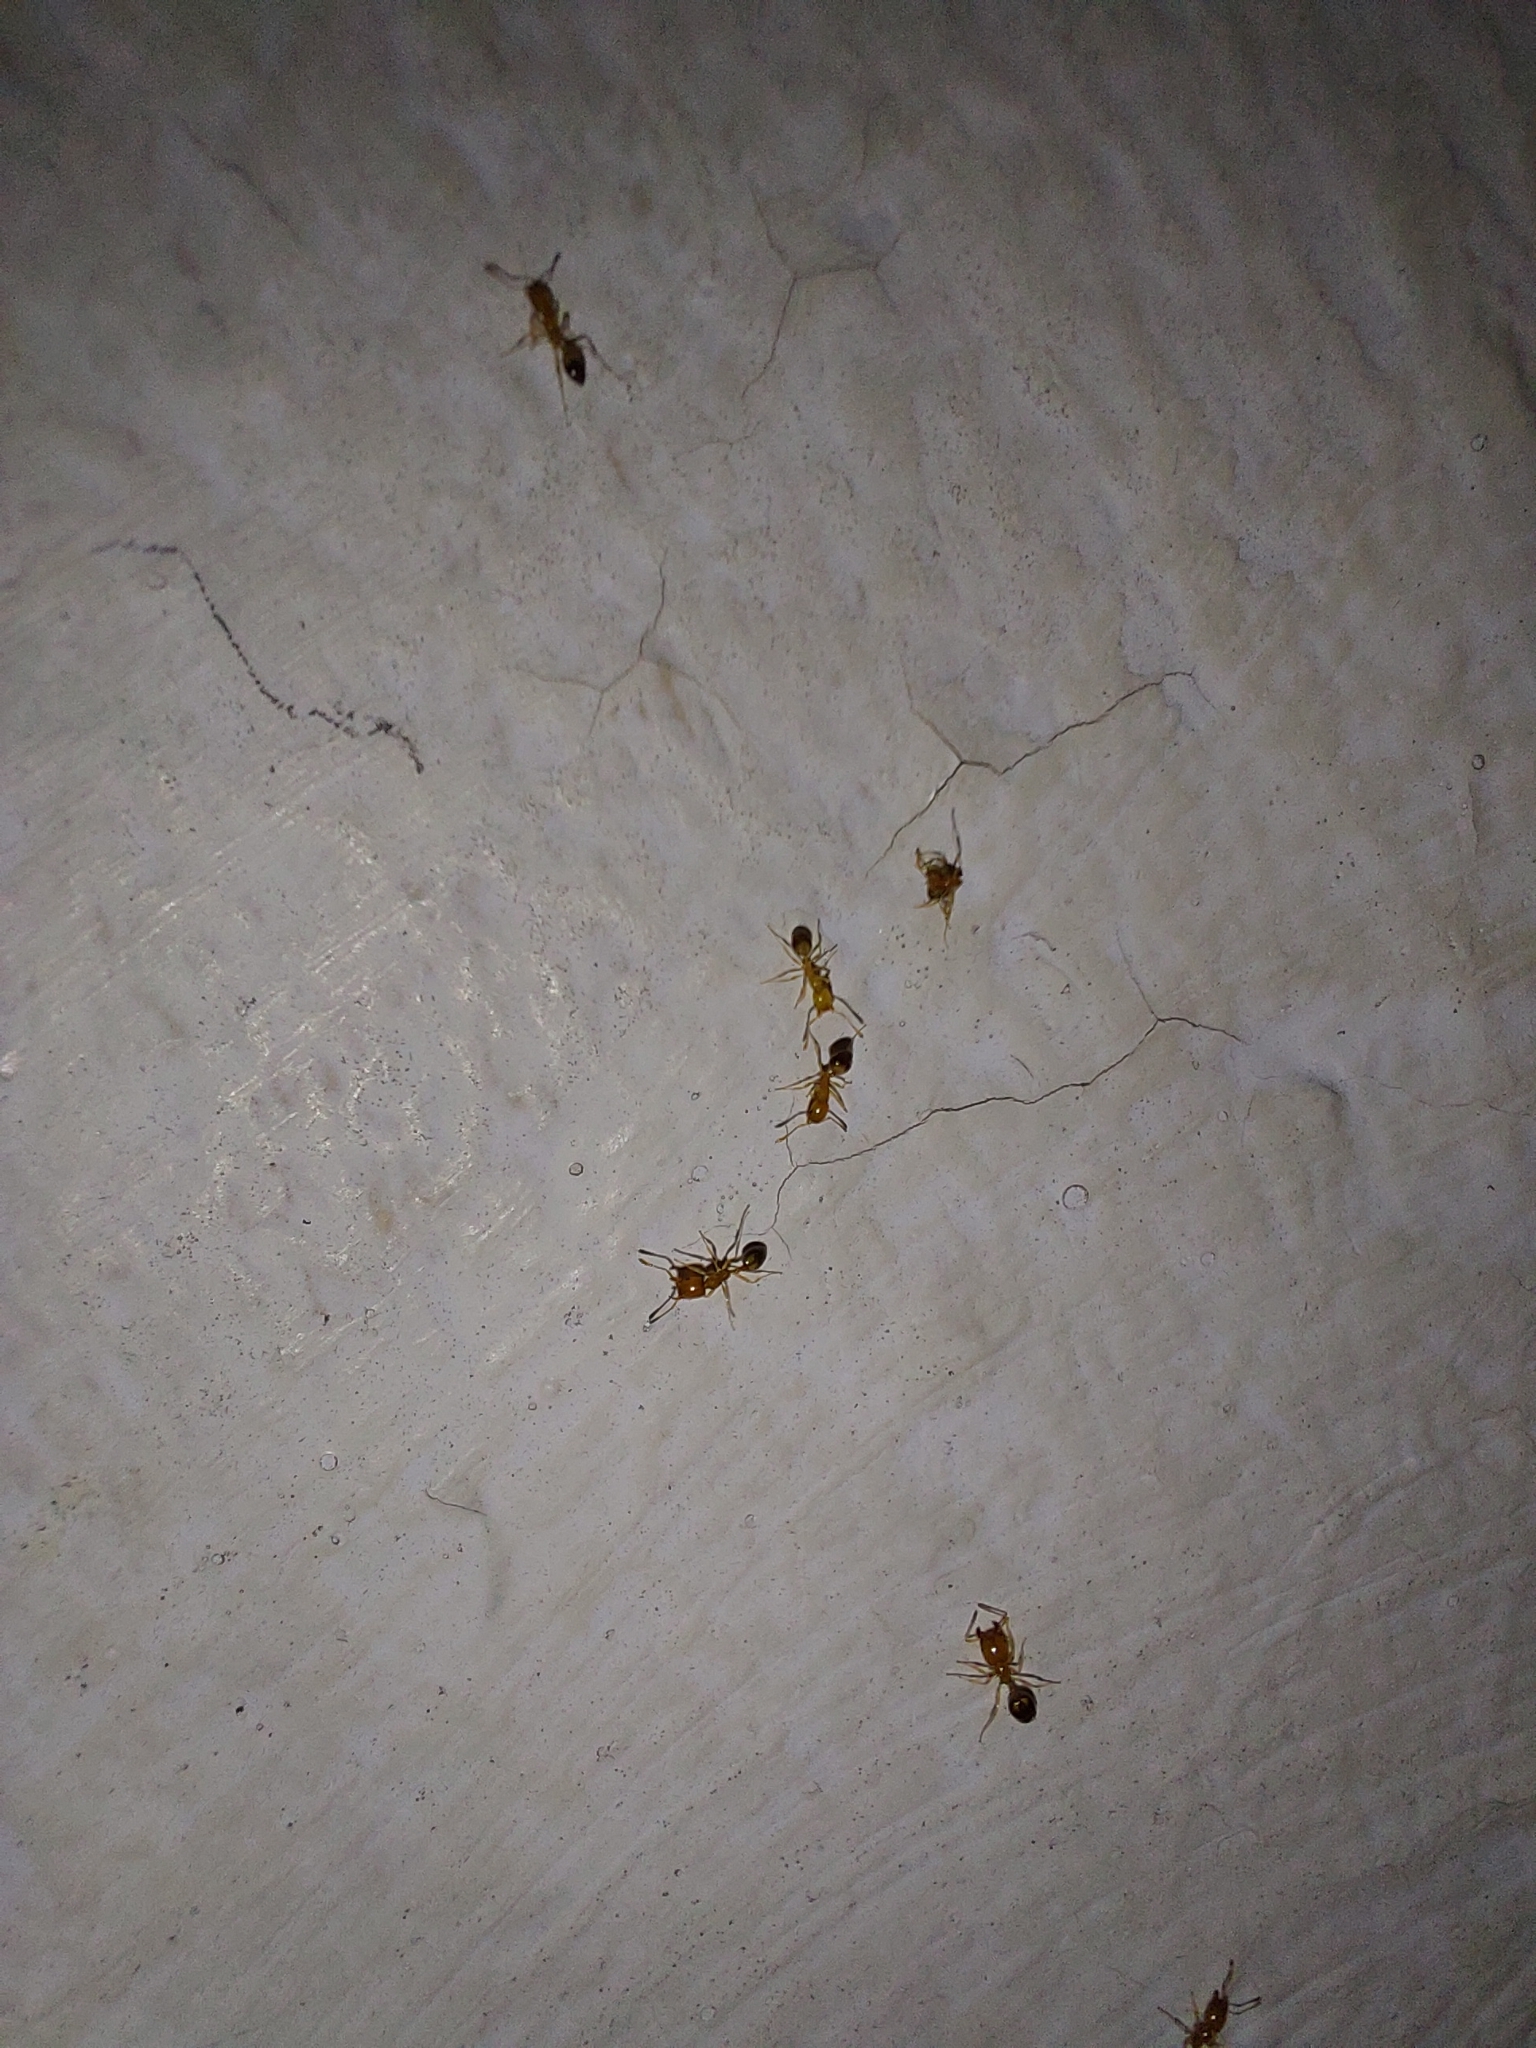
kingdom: Animalia
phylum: Arthropoda
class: Insecta
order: Hymenoptera
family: Formicidae
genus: Monomorium
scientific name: Monomorium destructor
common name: Destructive trailing ant
